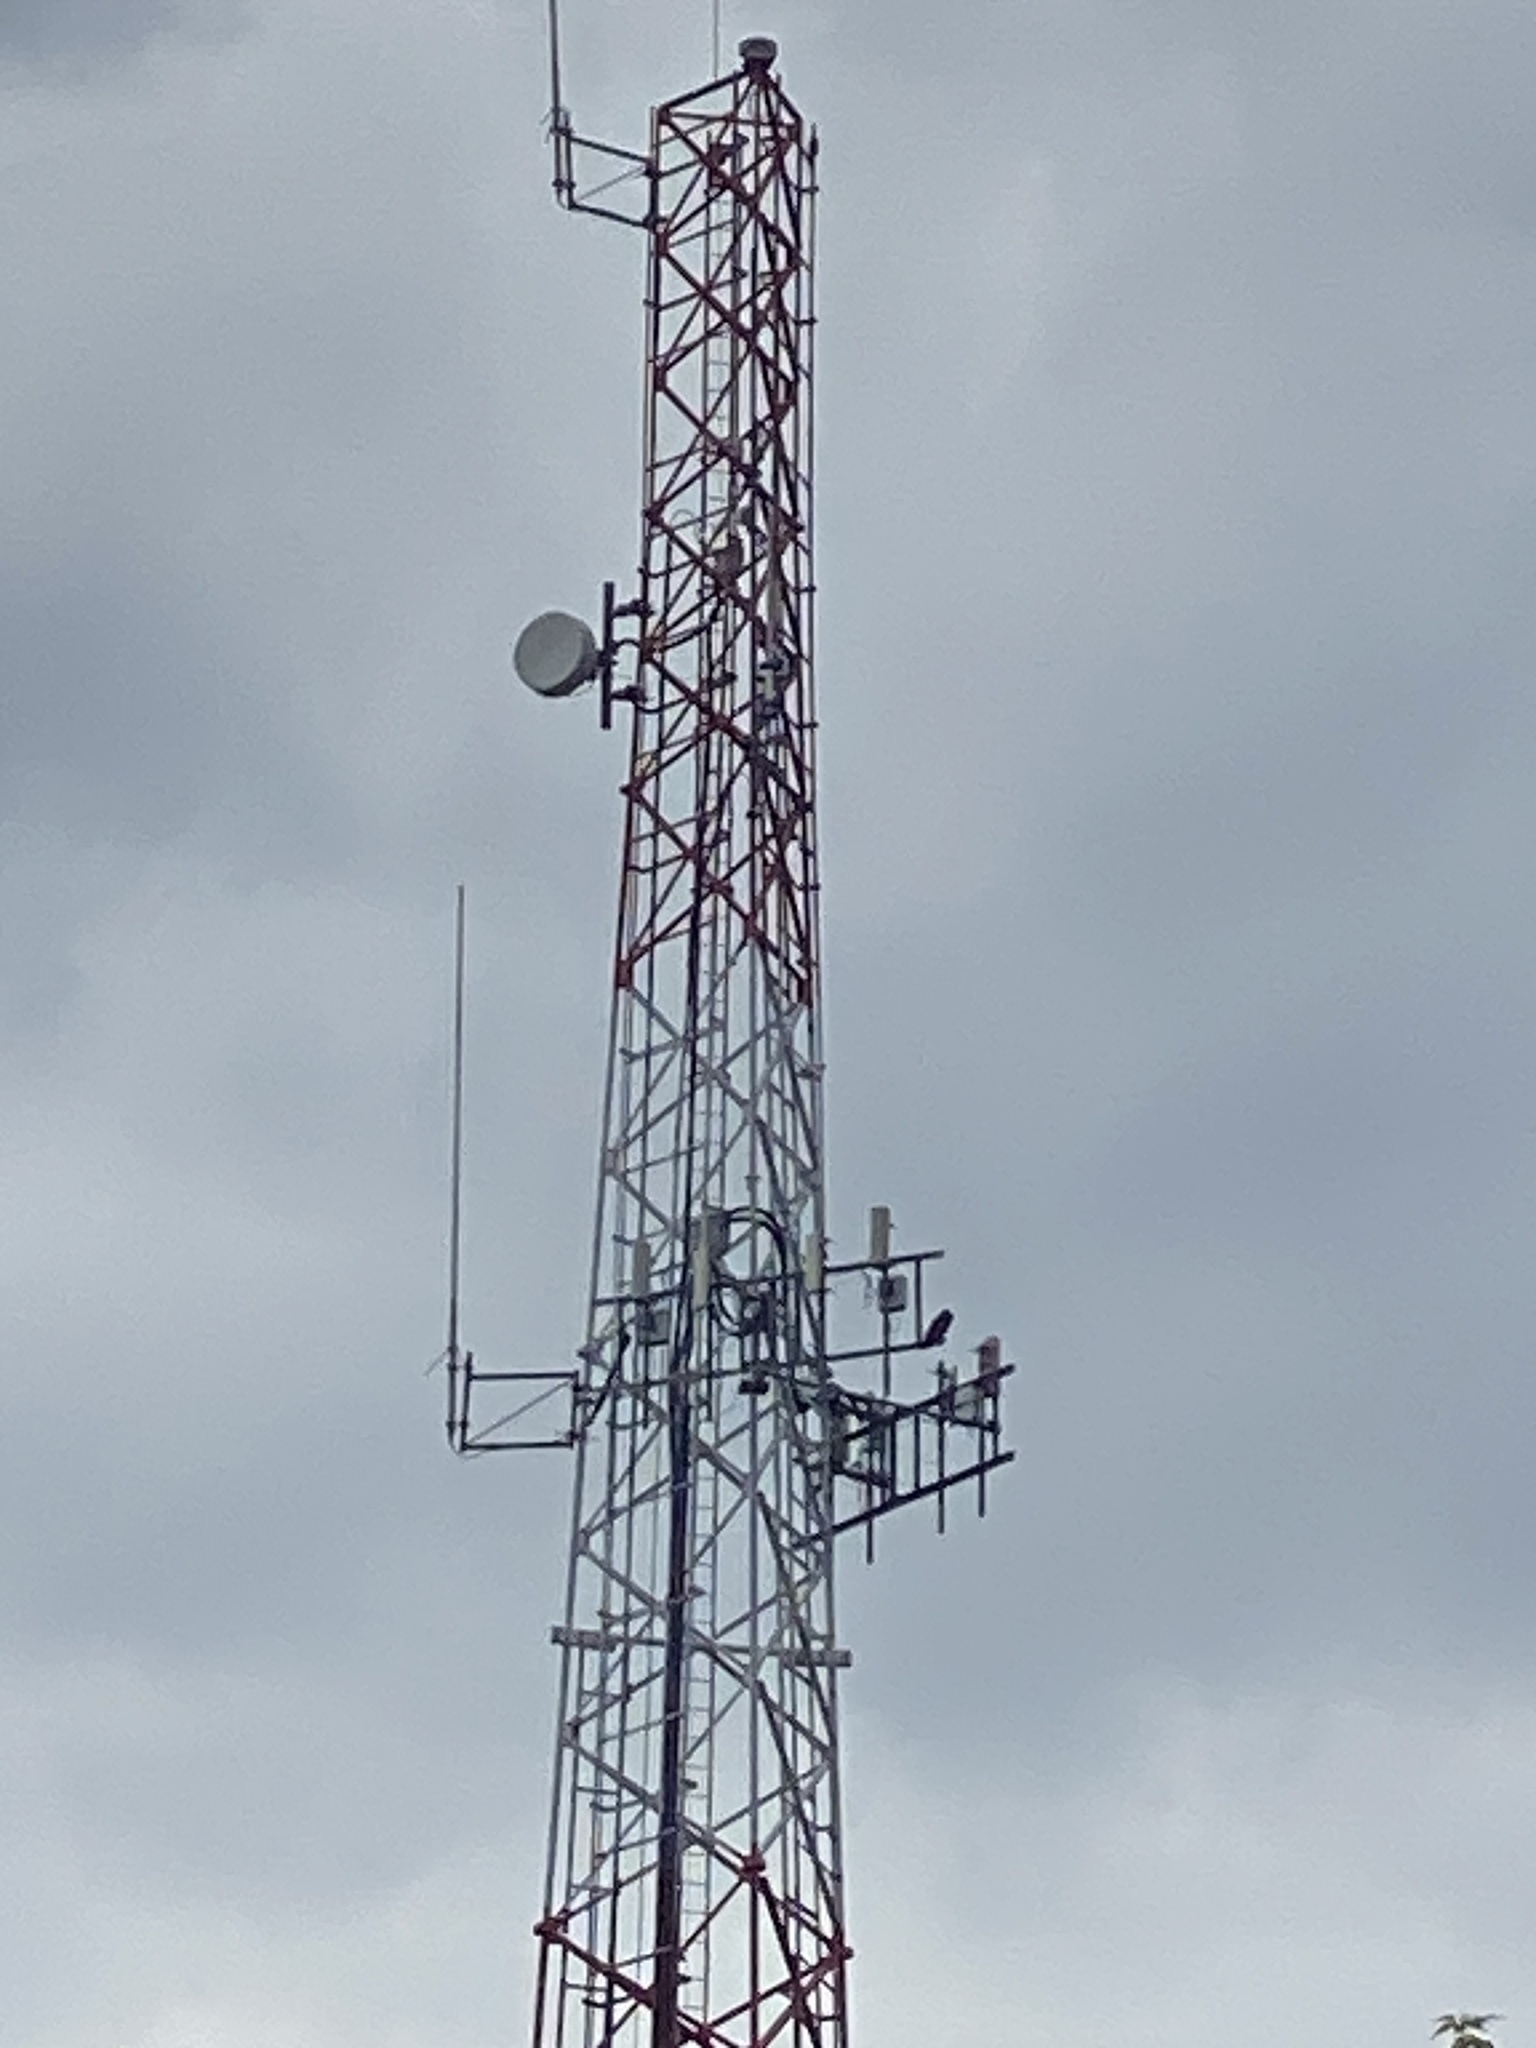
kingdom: Animalia
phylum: Chordata
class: Aves
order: Accipitriformes
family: Pandionidae
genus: Pandion
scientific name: Pandion haliaetus
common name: Osprey
